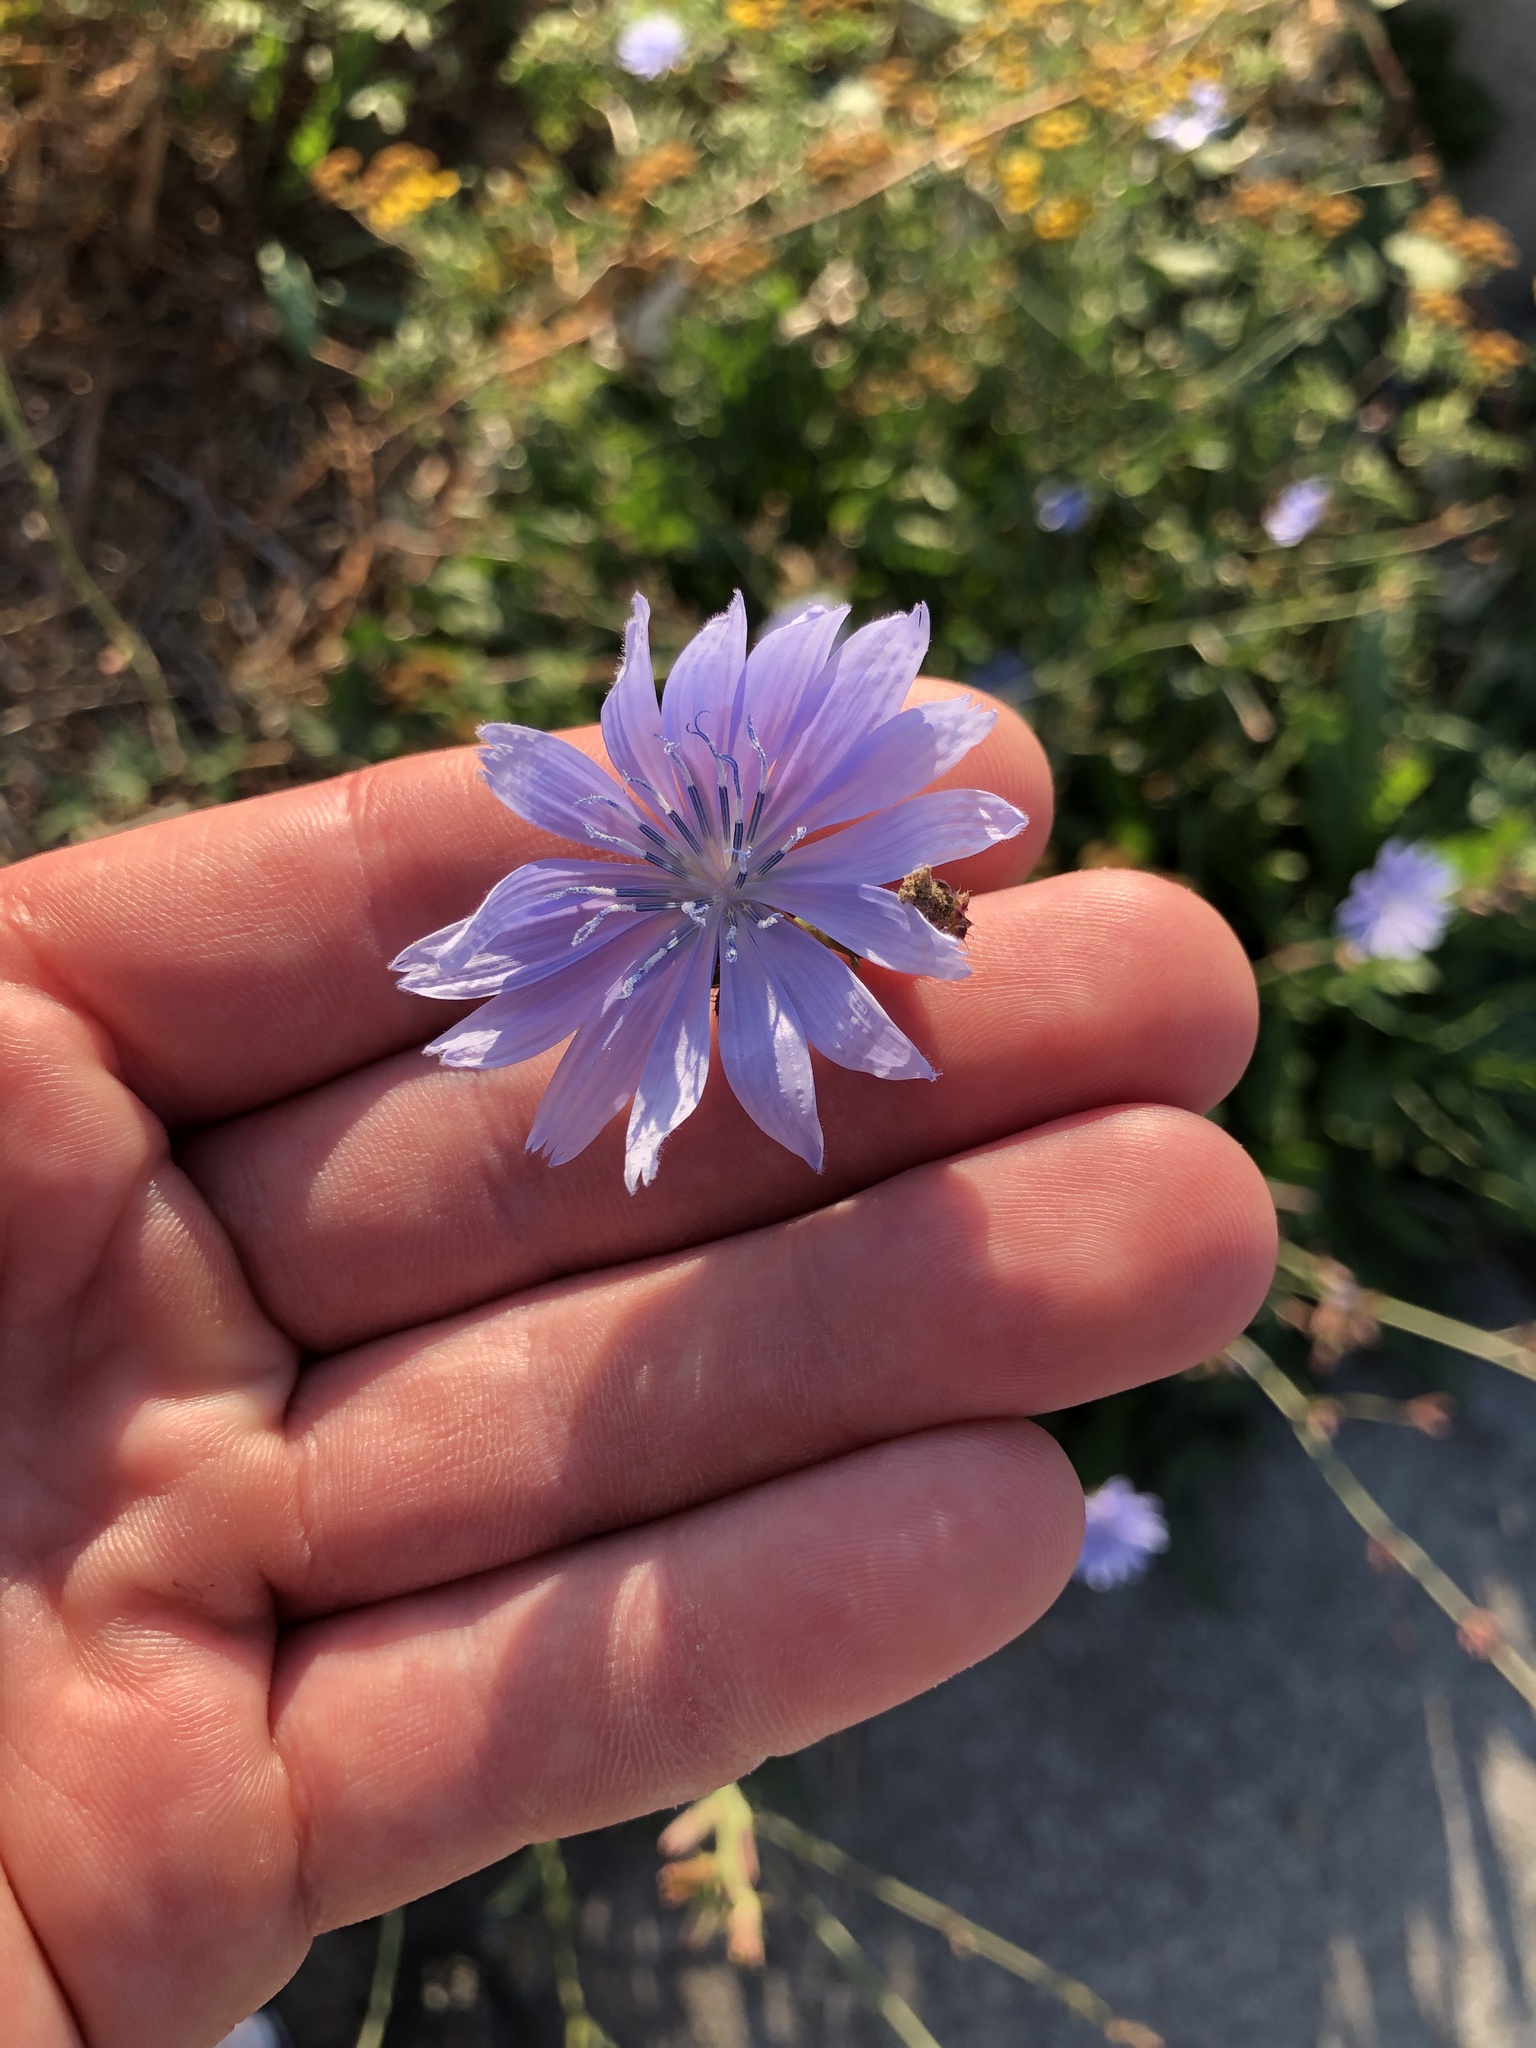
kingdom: Plantae
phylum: Tracheophyta
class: Magnoliopsida
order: Asterales
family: Asteraceae
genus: Cichorium
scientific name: Cichorium intybus
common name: Chicory
